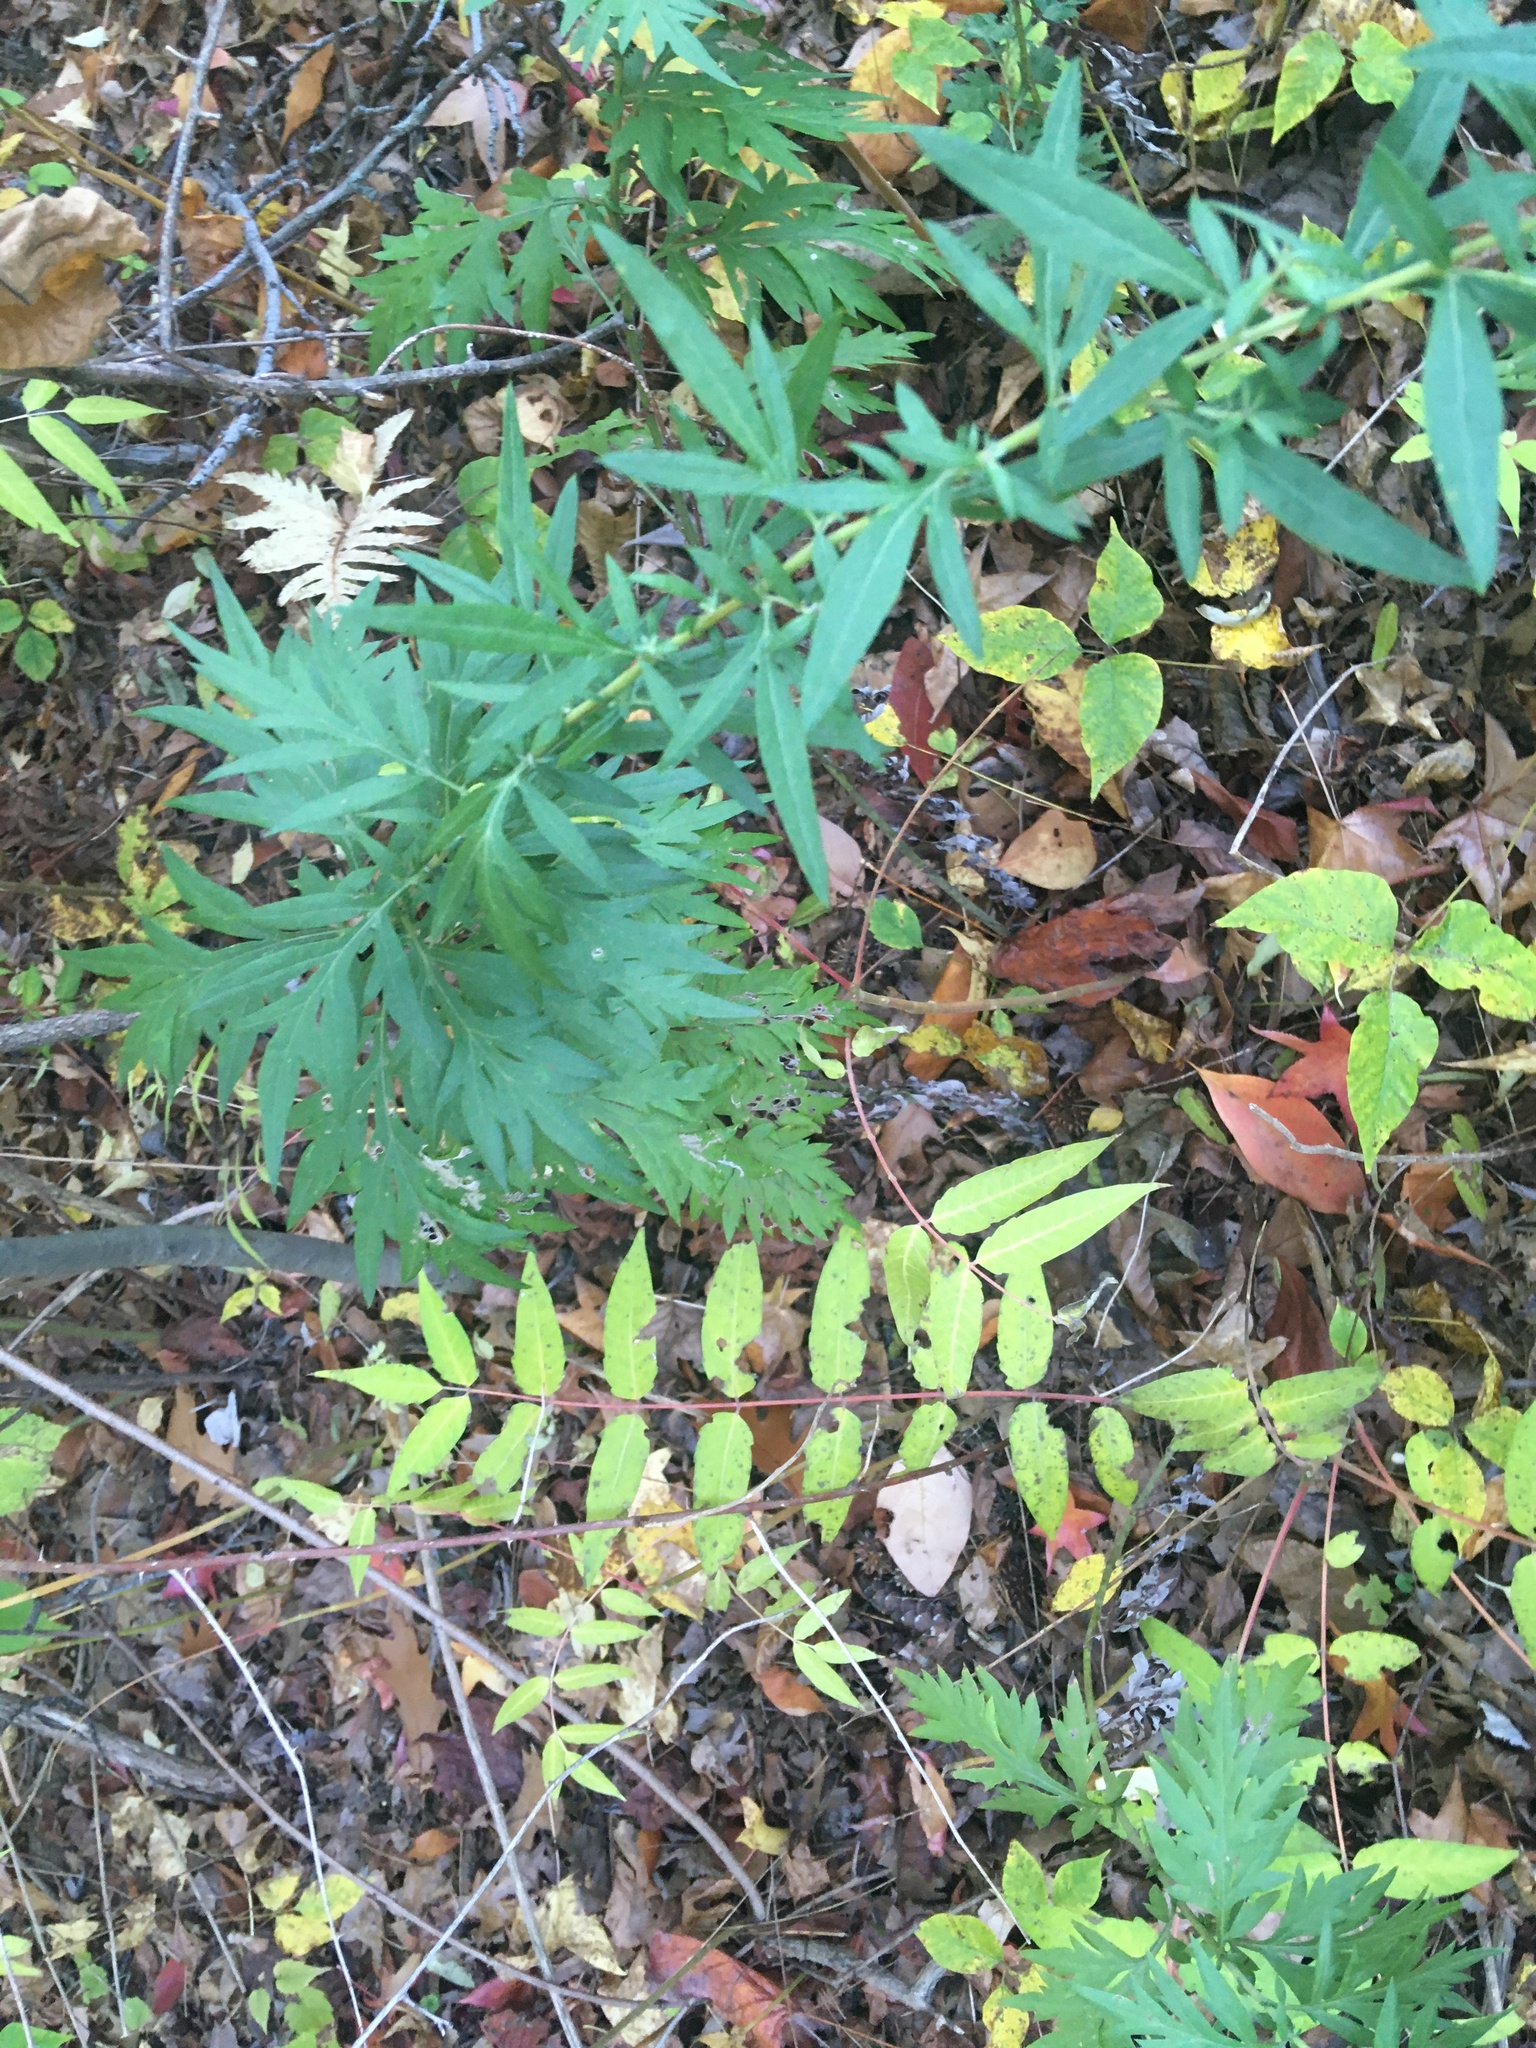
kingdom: Plantae
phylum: Tracheophyta
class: Magnoliopsida
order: Asterales
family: Asteraceae
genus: Artemisia
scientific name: Artemisia vulgaris
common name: Mugwort
